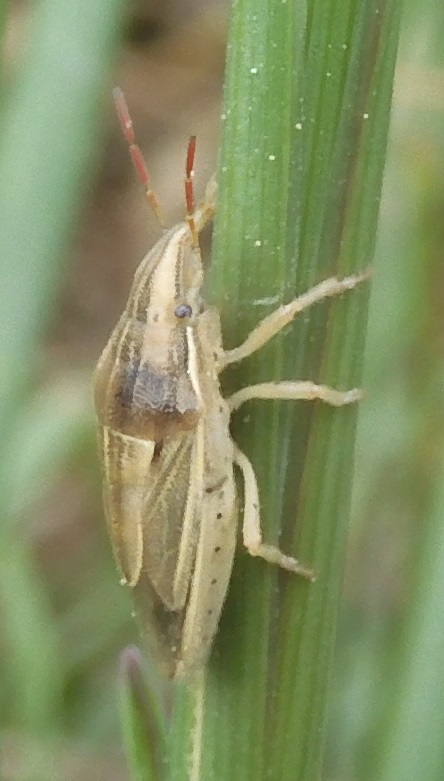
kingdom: Animalia
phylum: Arthropoda
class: Insecta
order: Hemiptera
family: Pentatomidae
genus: Aelia
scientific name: Aelia acuminata
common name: Bishop's mitre
